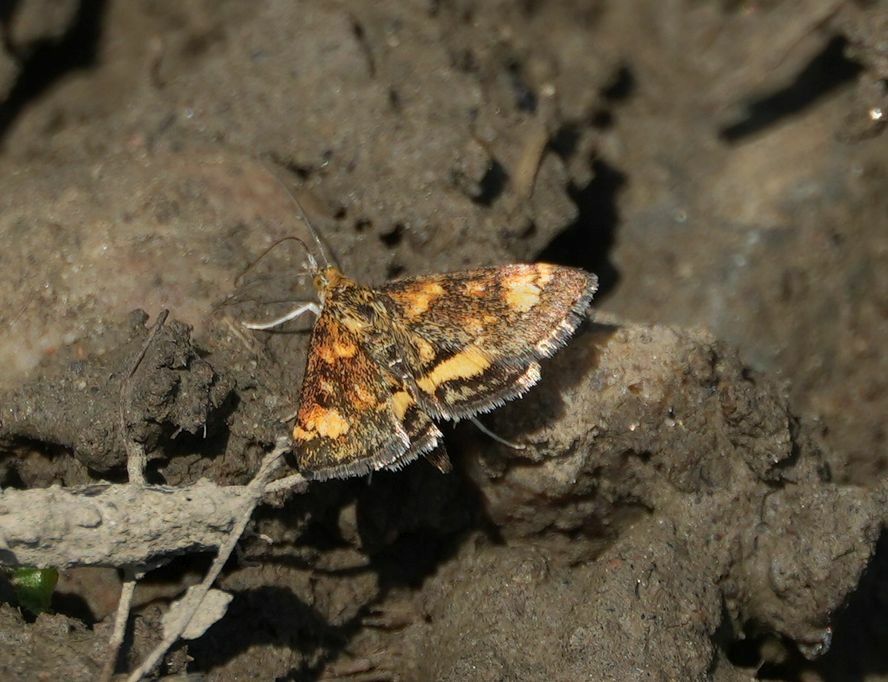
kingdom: Animalia
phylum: Arthropoda
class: Insecta
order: Lepidoptera
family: Crambidae
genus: Pyrausta
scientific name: Pyrausta orphisalis
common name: Orange mint moth
